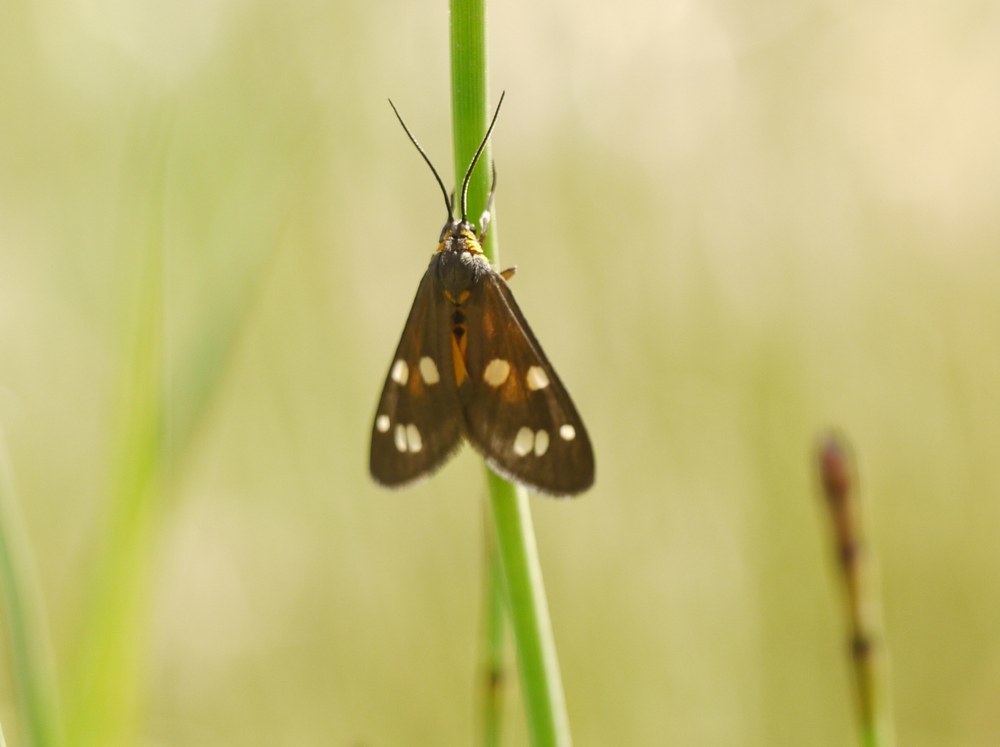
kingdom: Animalia
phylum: Arthropoda
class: Insecta
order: Lepidoptera
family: Erebidae
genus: Dysauxes
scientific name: Dysauxes punctata
